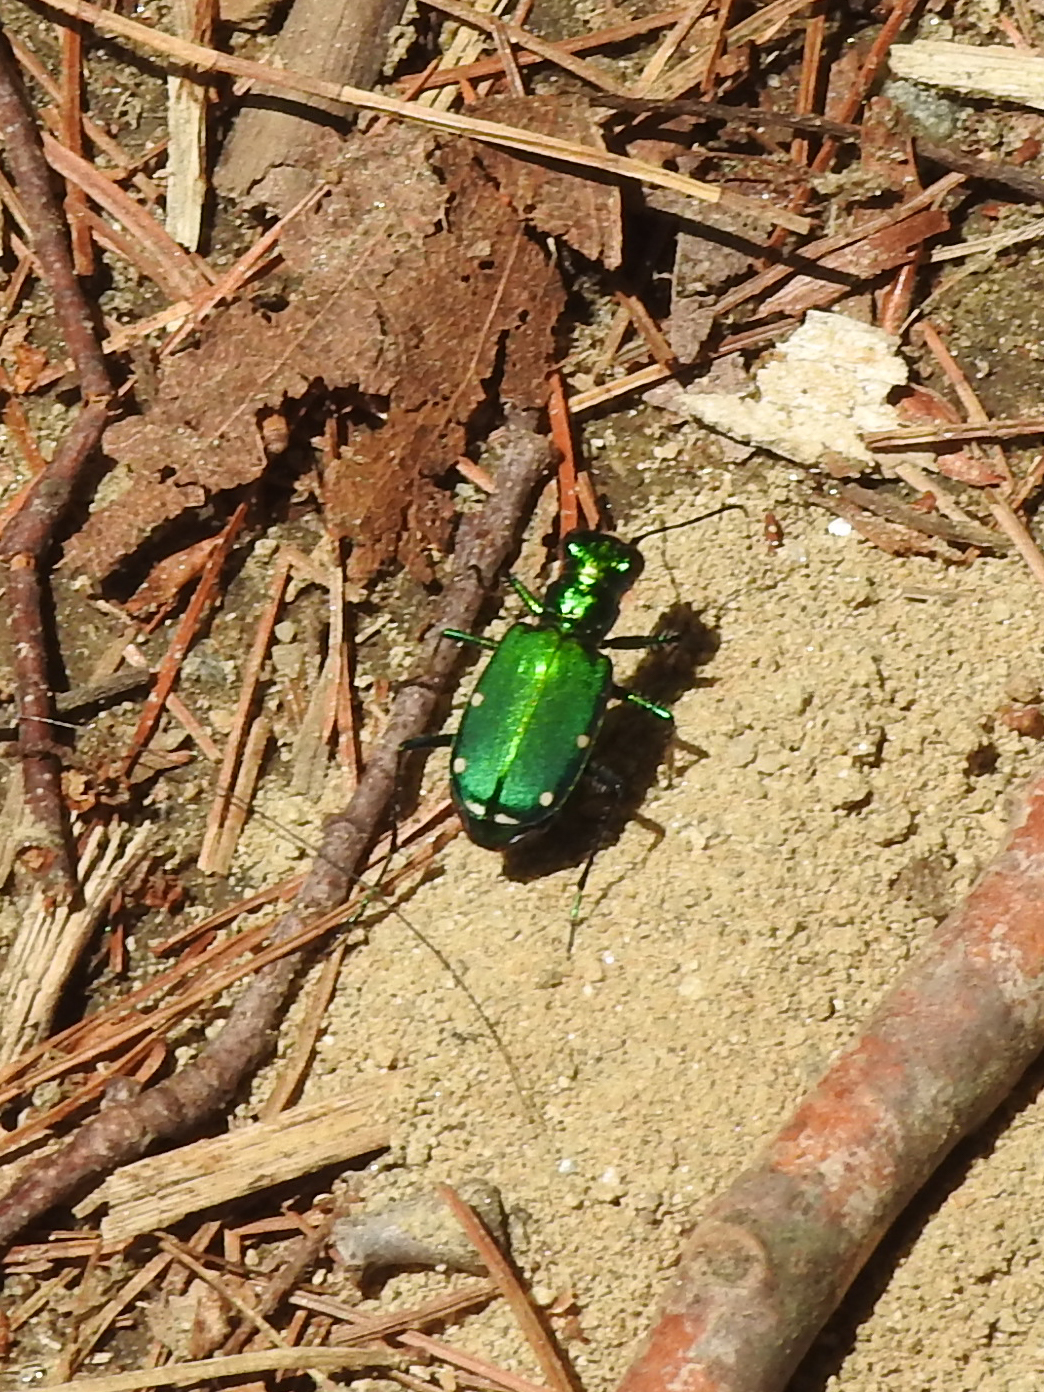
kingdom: Animalia
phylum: Arthropoda
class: Insecta
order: Coleoptera
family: Carabidae
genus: Cicindela
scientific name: Cicindela sexguttata
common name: Six-spotted tiger beetle
